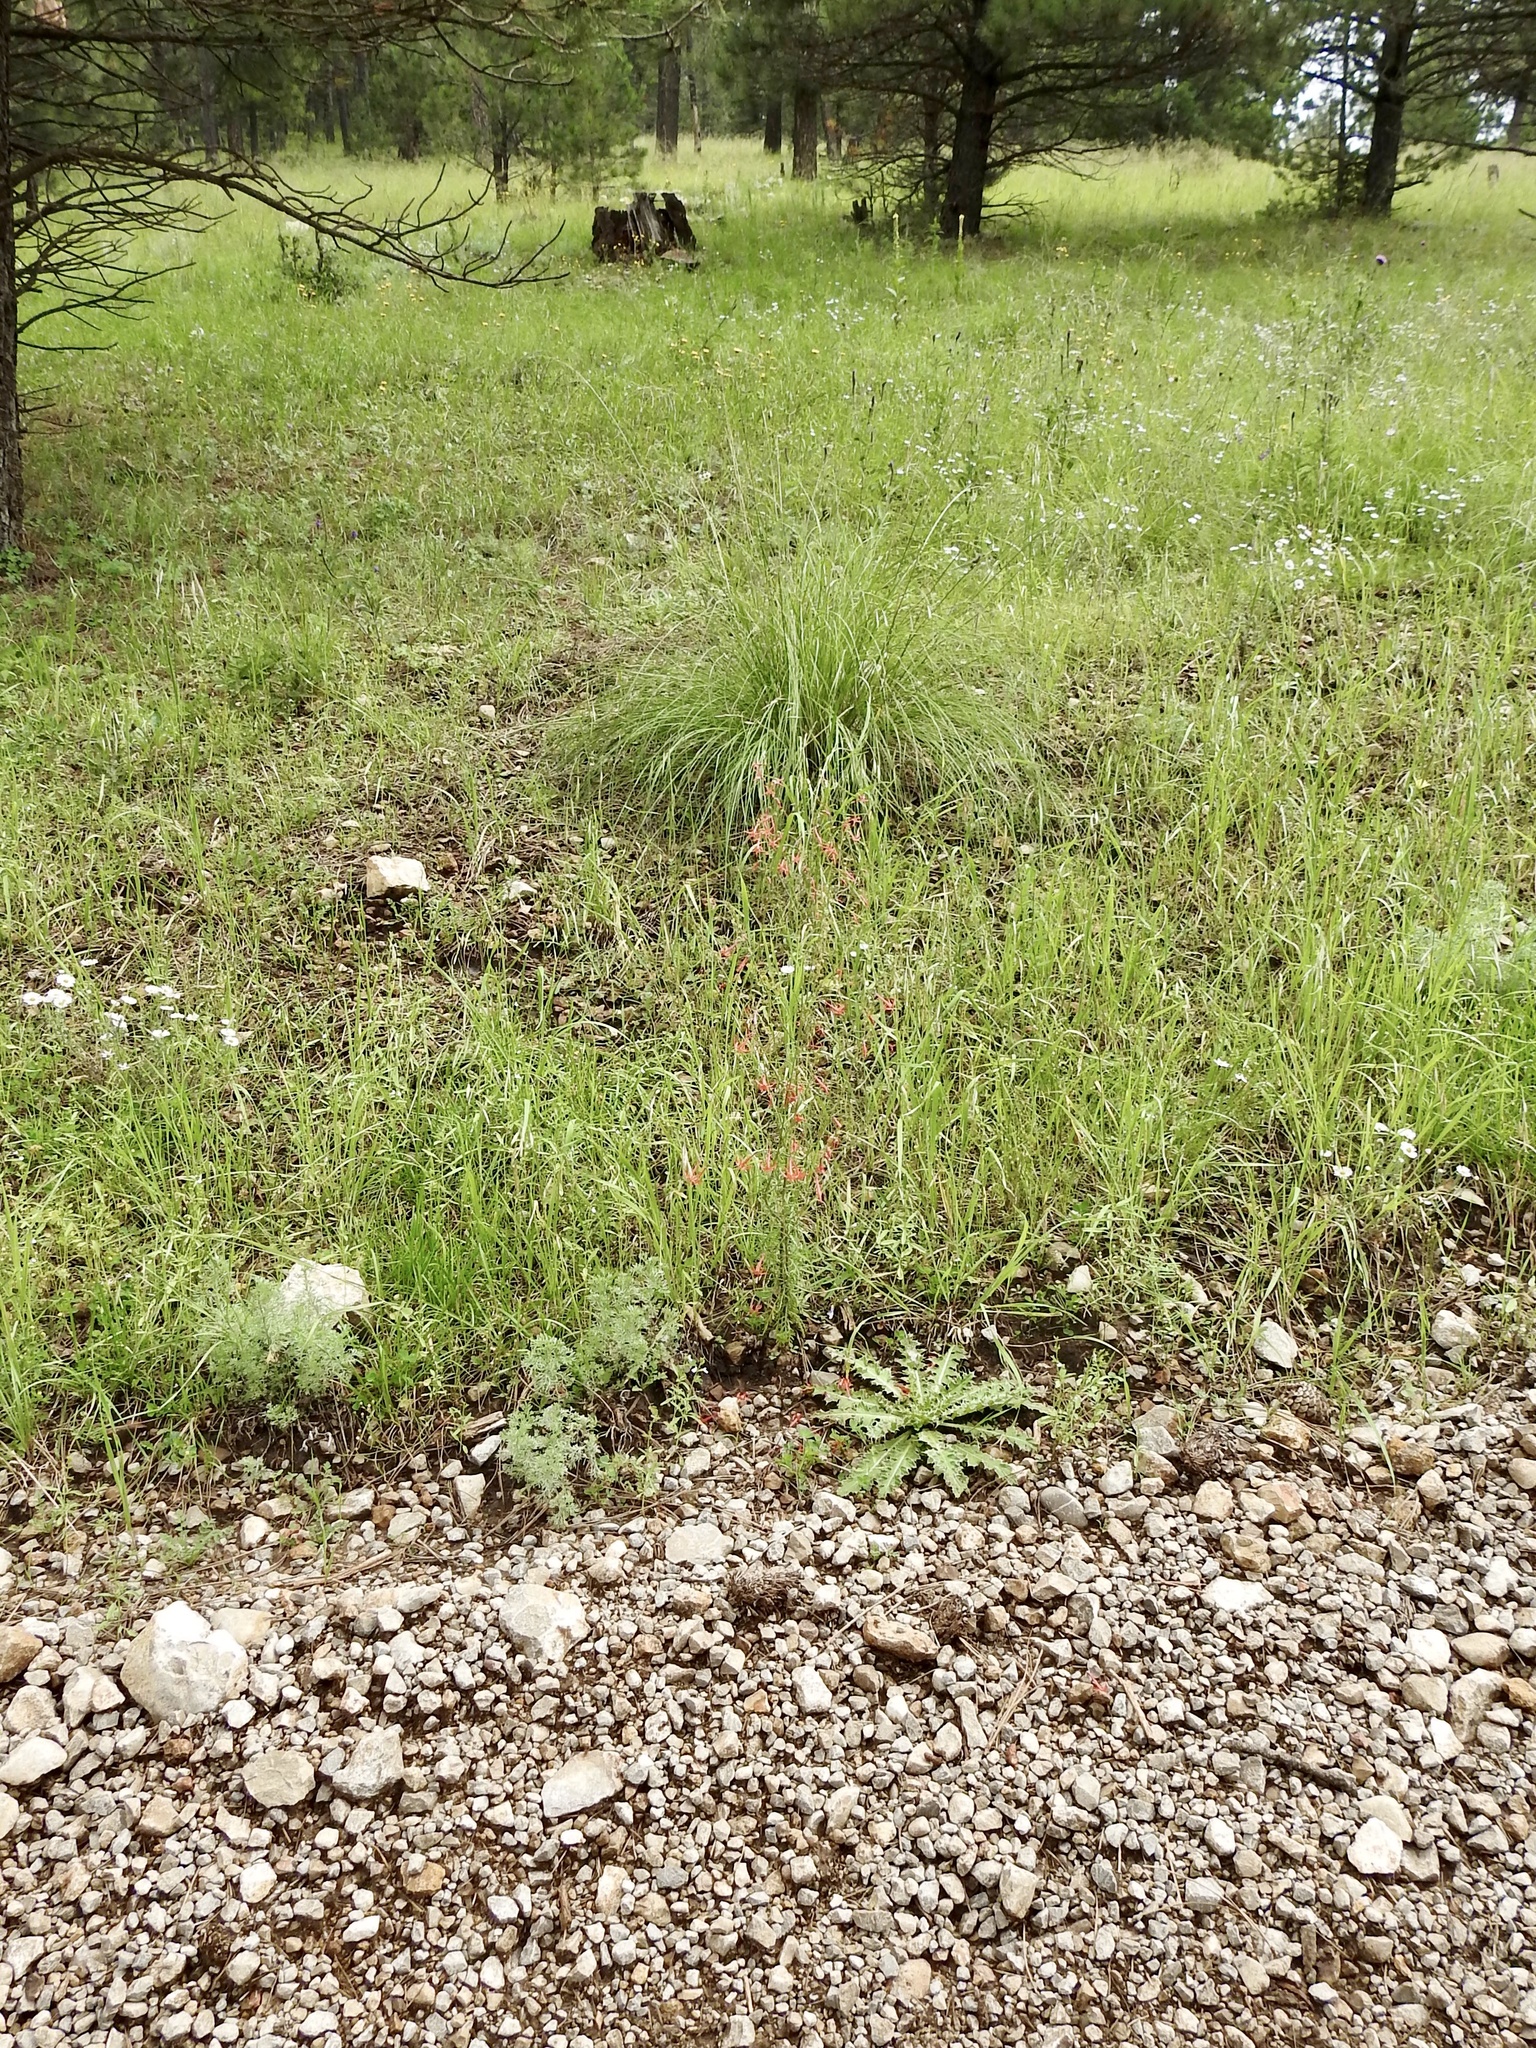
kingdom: Plantae
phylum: Tracheophyta
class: Magnoliopsida
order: Ericales
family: Polemoniaceae
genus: Ipomopsis
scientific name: Ipomopsis aggregata
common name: Scarlet gilia
